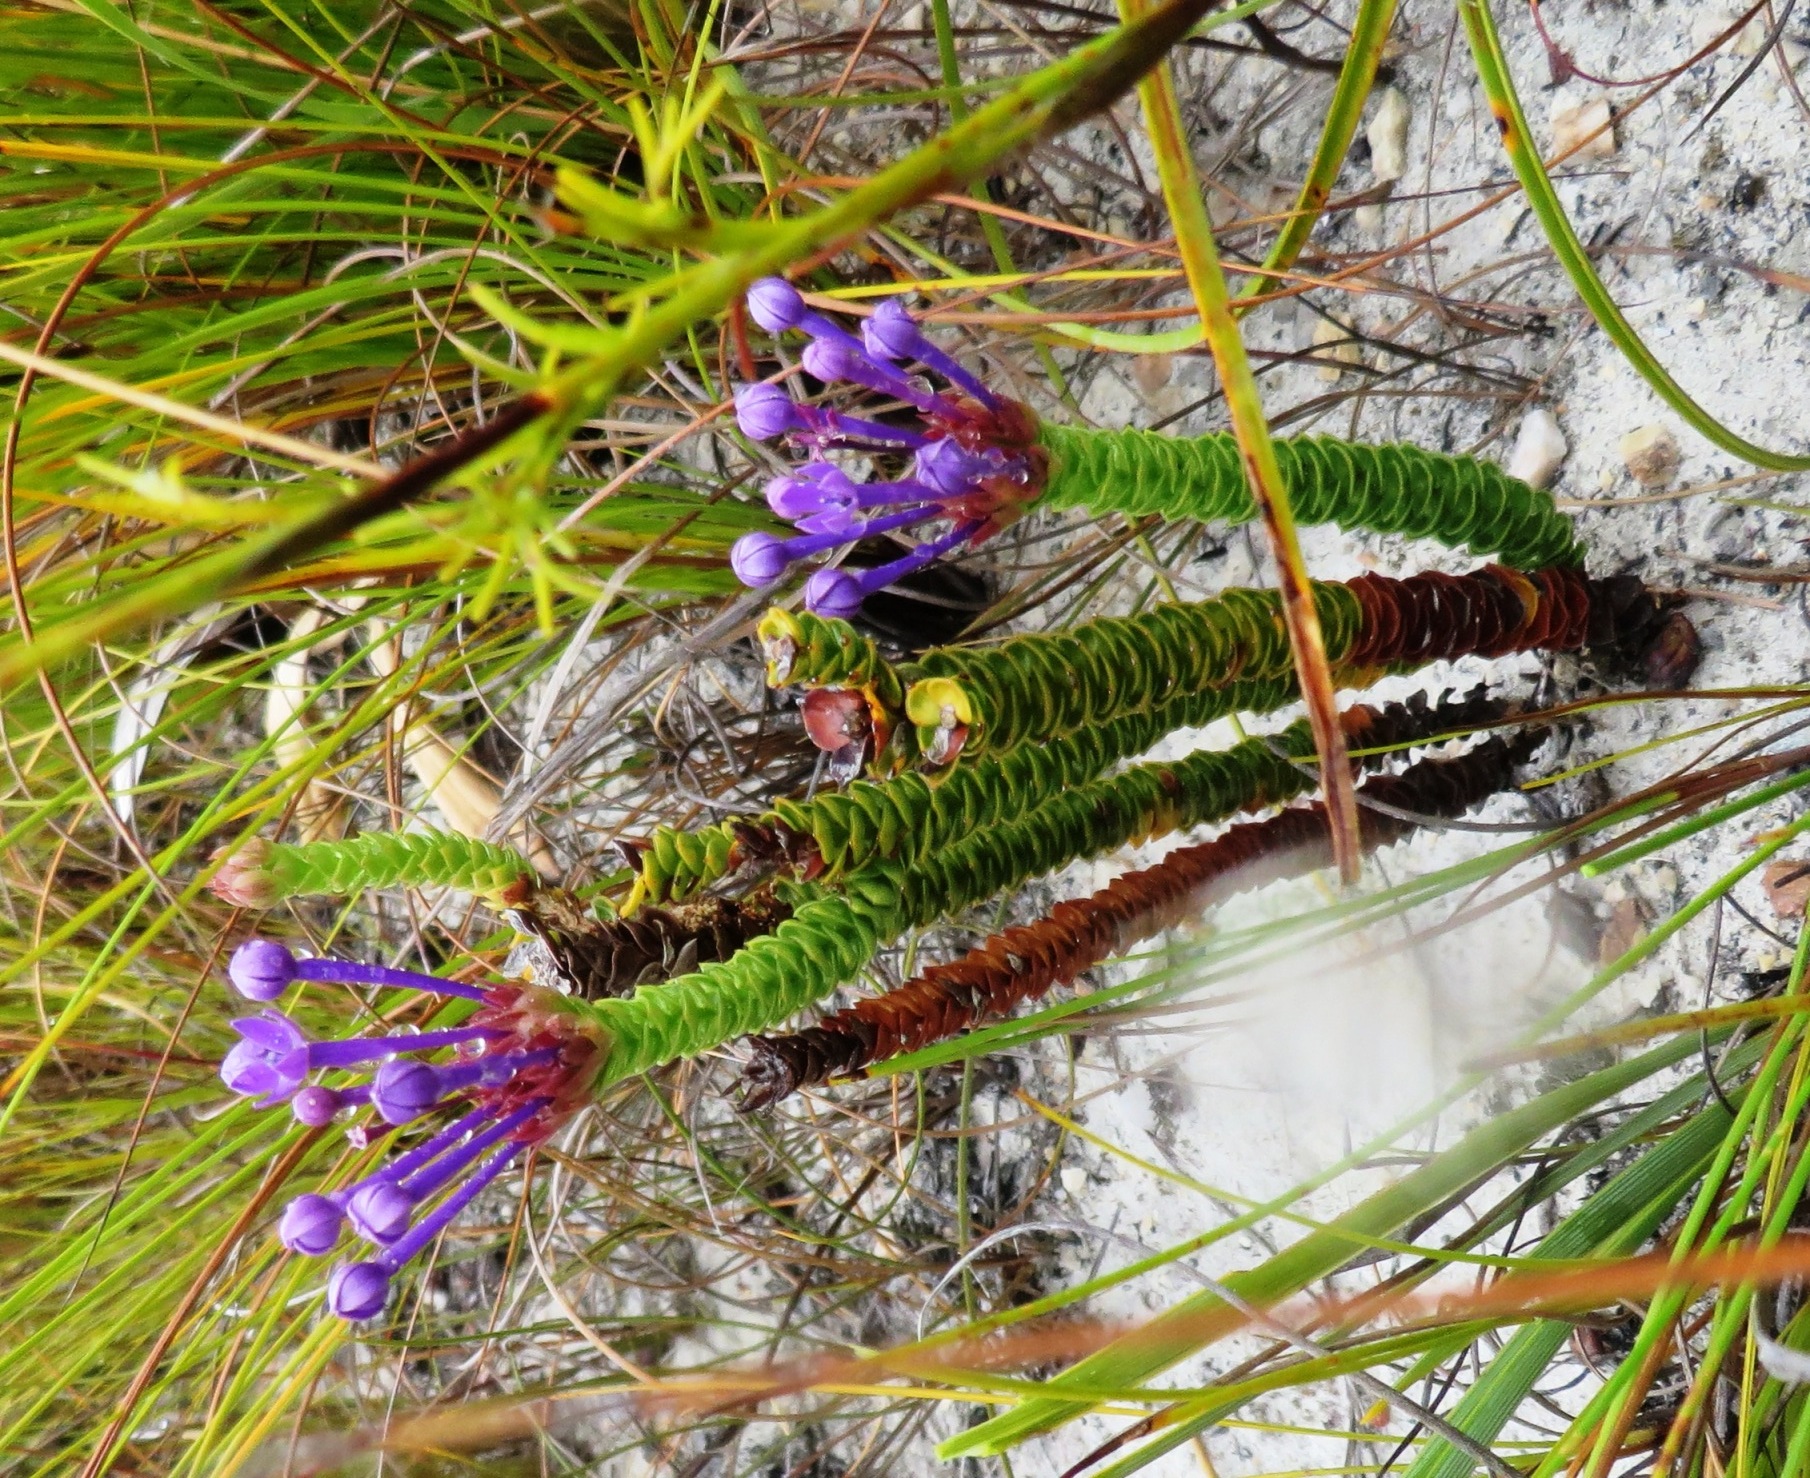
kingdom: Plantae
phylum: Tracheophyta
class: Magnoliopsida
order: Asterales
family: Campanulaceae
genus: Rhigiophyllum
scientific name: Rhigiophyllum squarrosum
